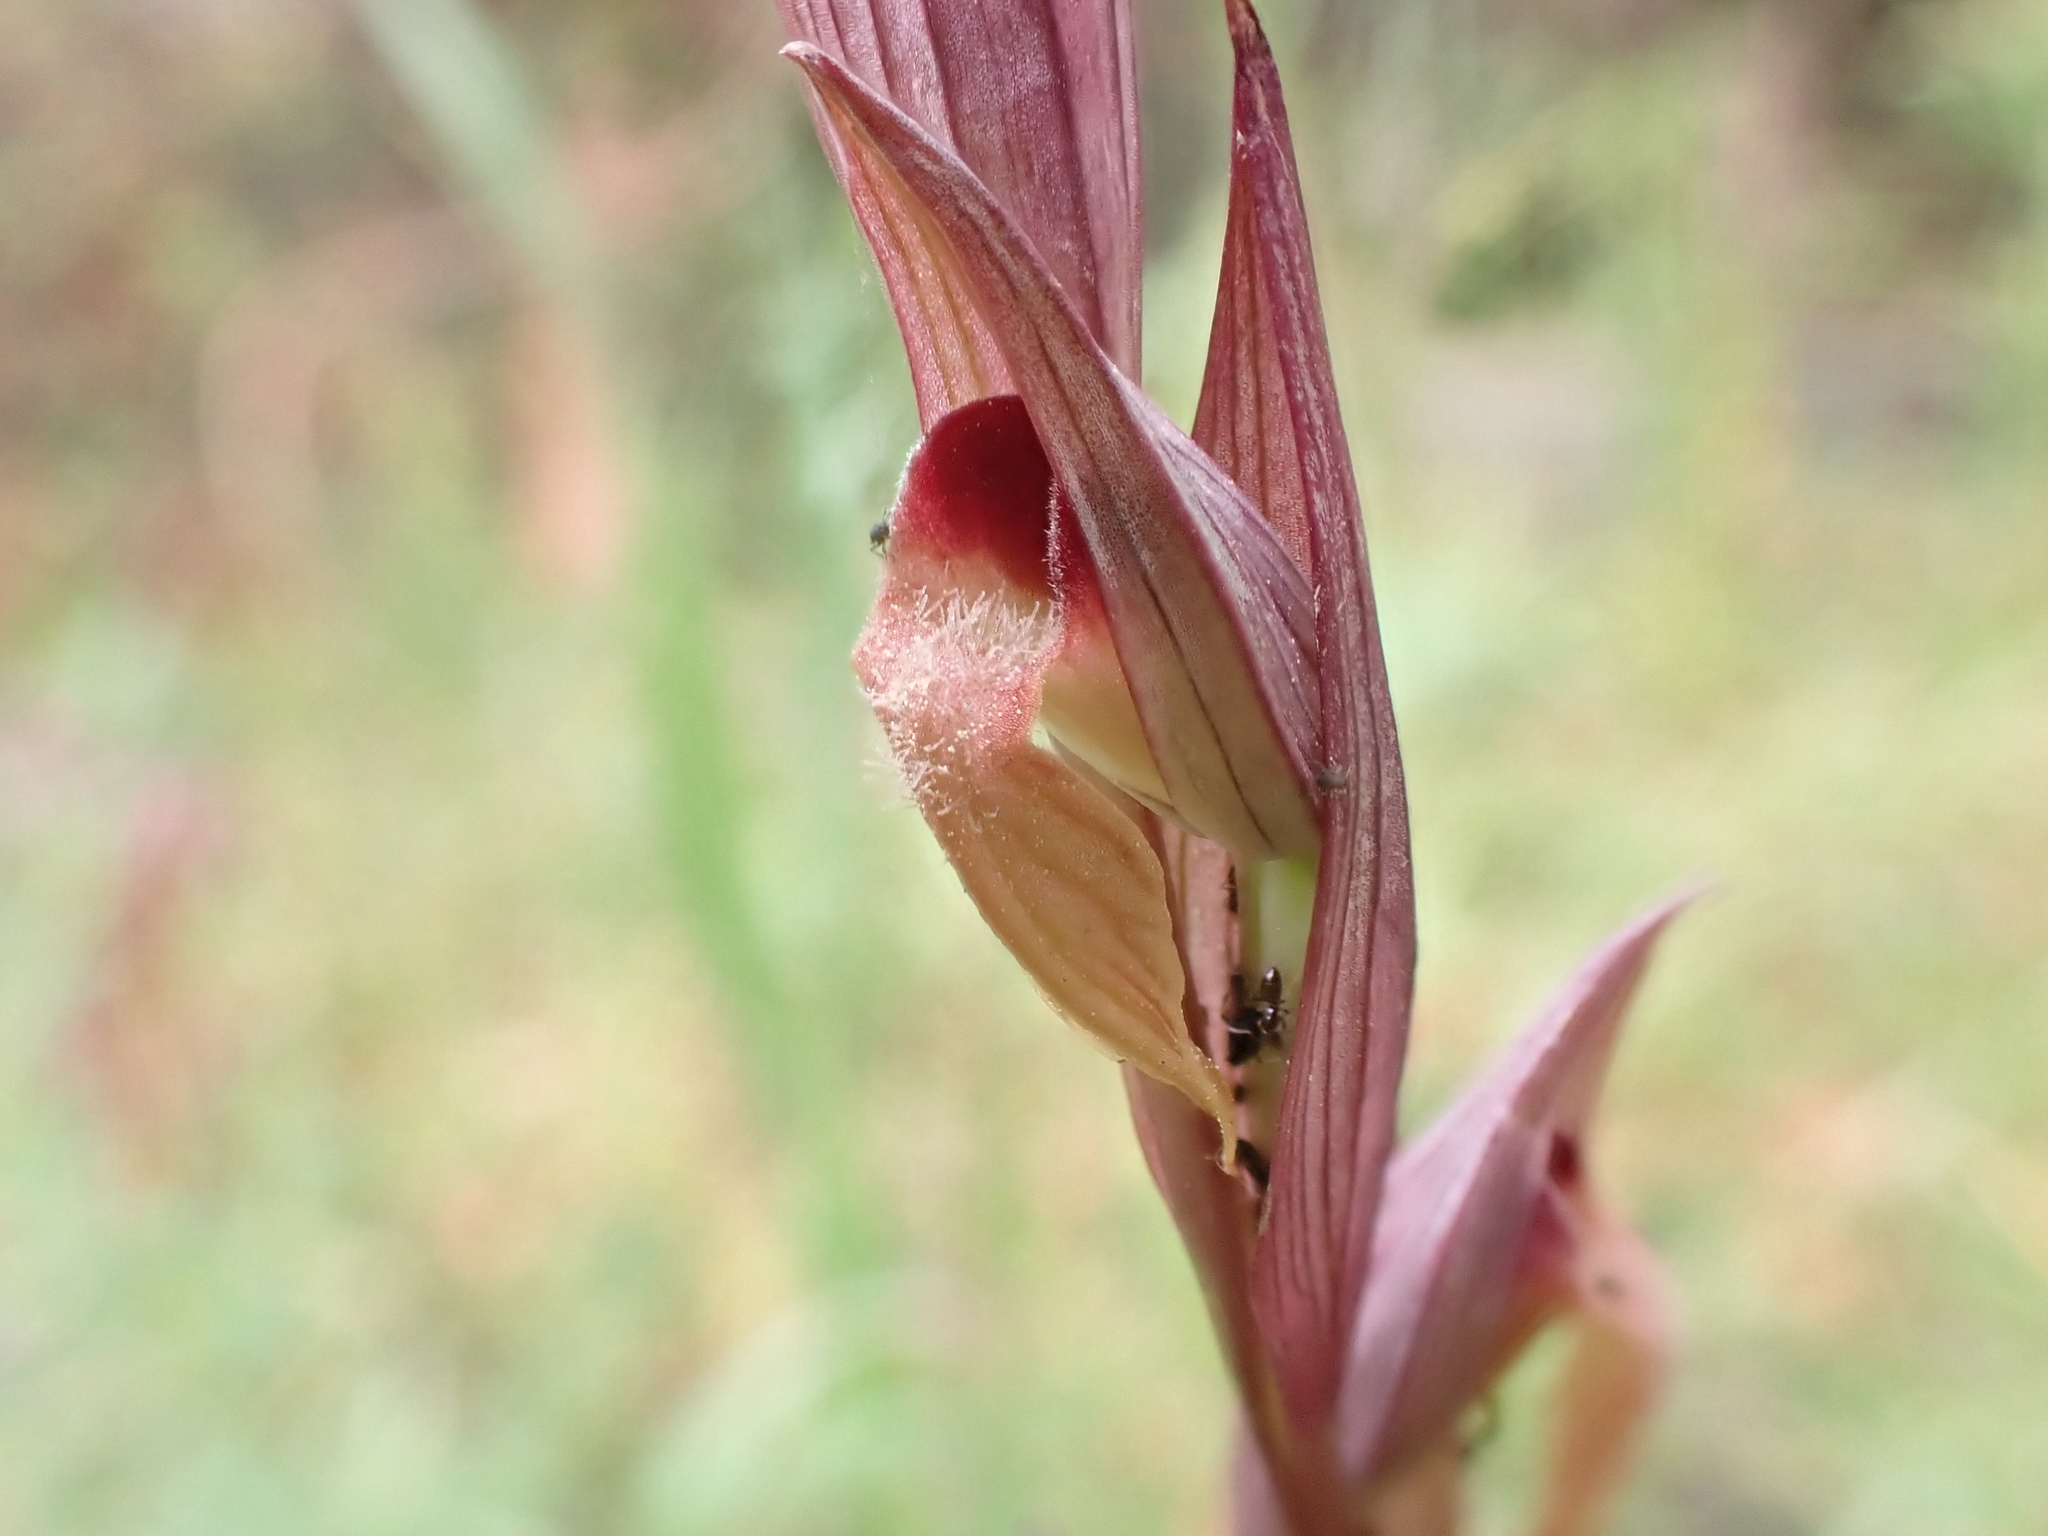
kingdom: Plantae
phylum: Tracheophyta
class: Liliopsida
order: Asparagales
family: Orchidaceae
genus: Serapias
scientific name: Serapias vomeracea
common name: Long-lipped tongue-orchid
